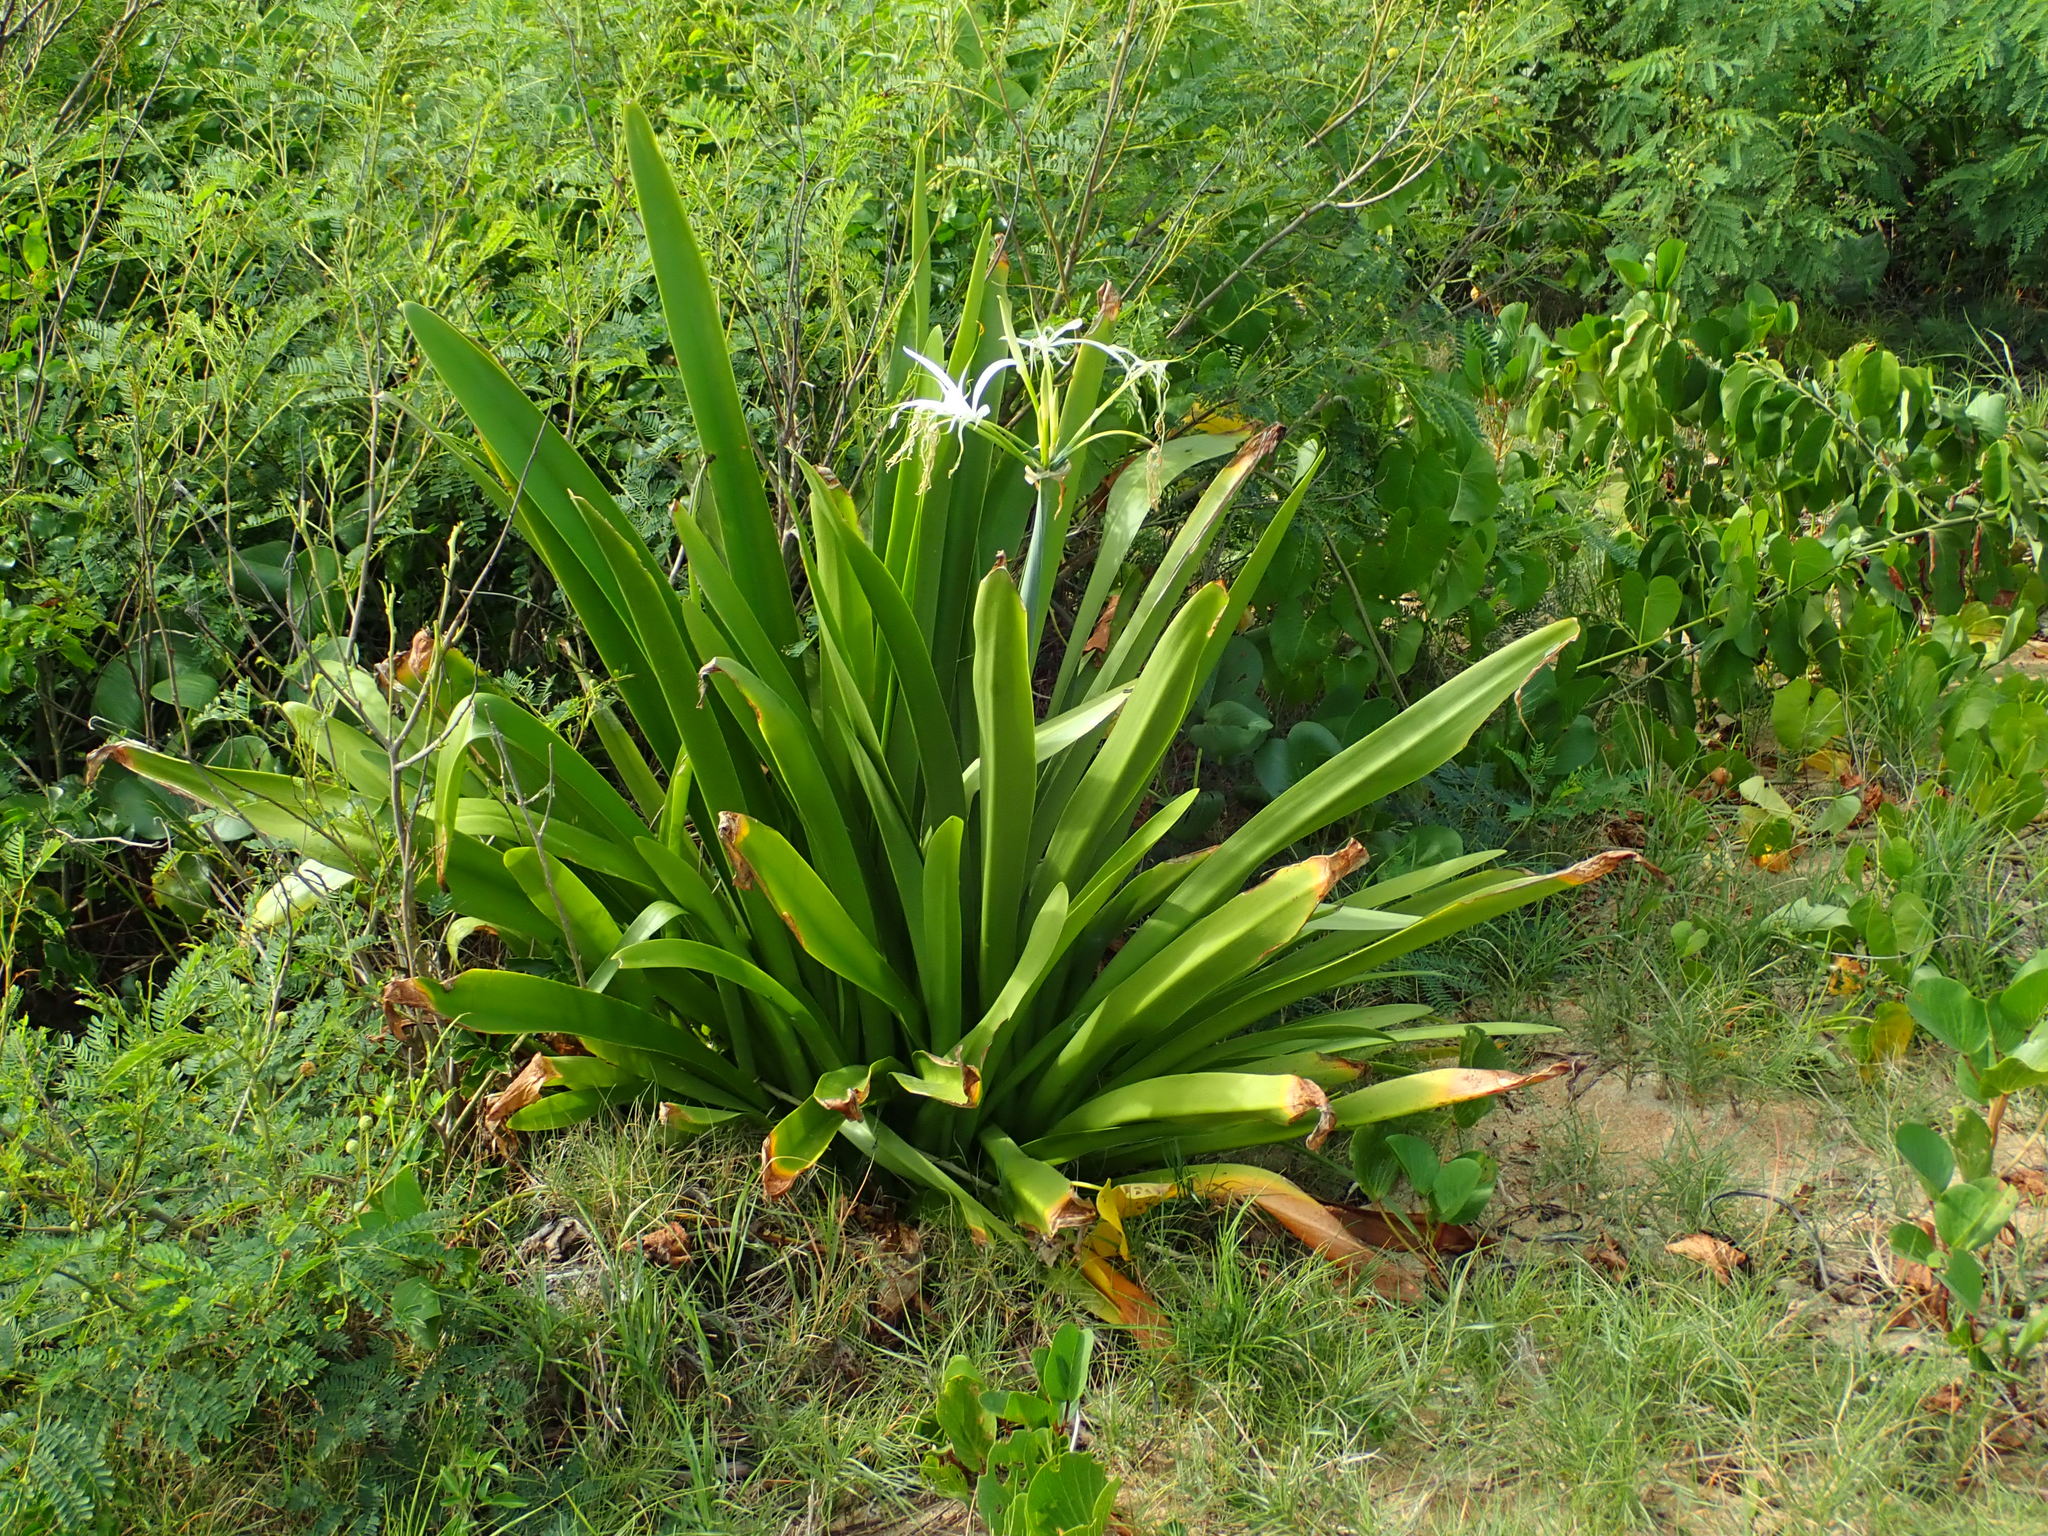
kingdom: Plantae
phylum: Tracheophyta
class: Liliopsida
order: Asparagales
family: Amaryllidaceae
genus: Hymenocallis
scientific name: Hymenocallis littoralis
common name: Beach spiderlily
